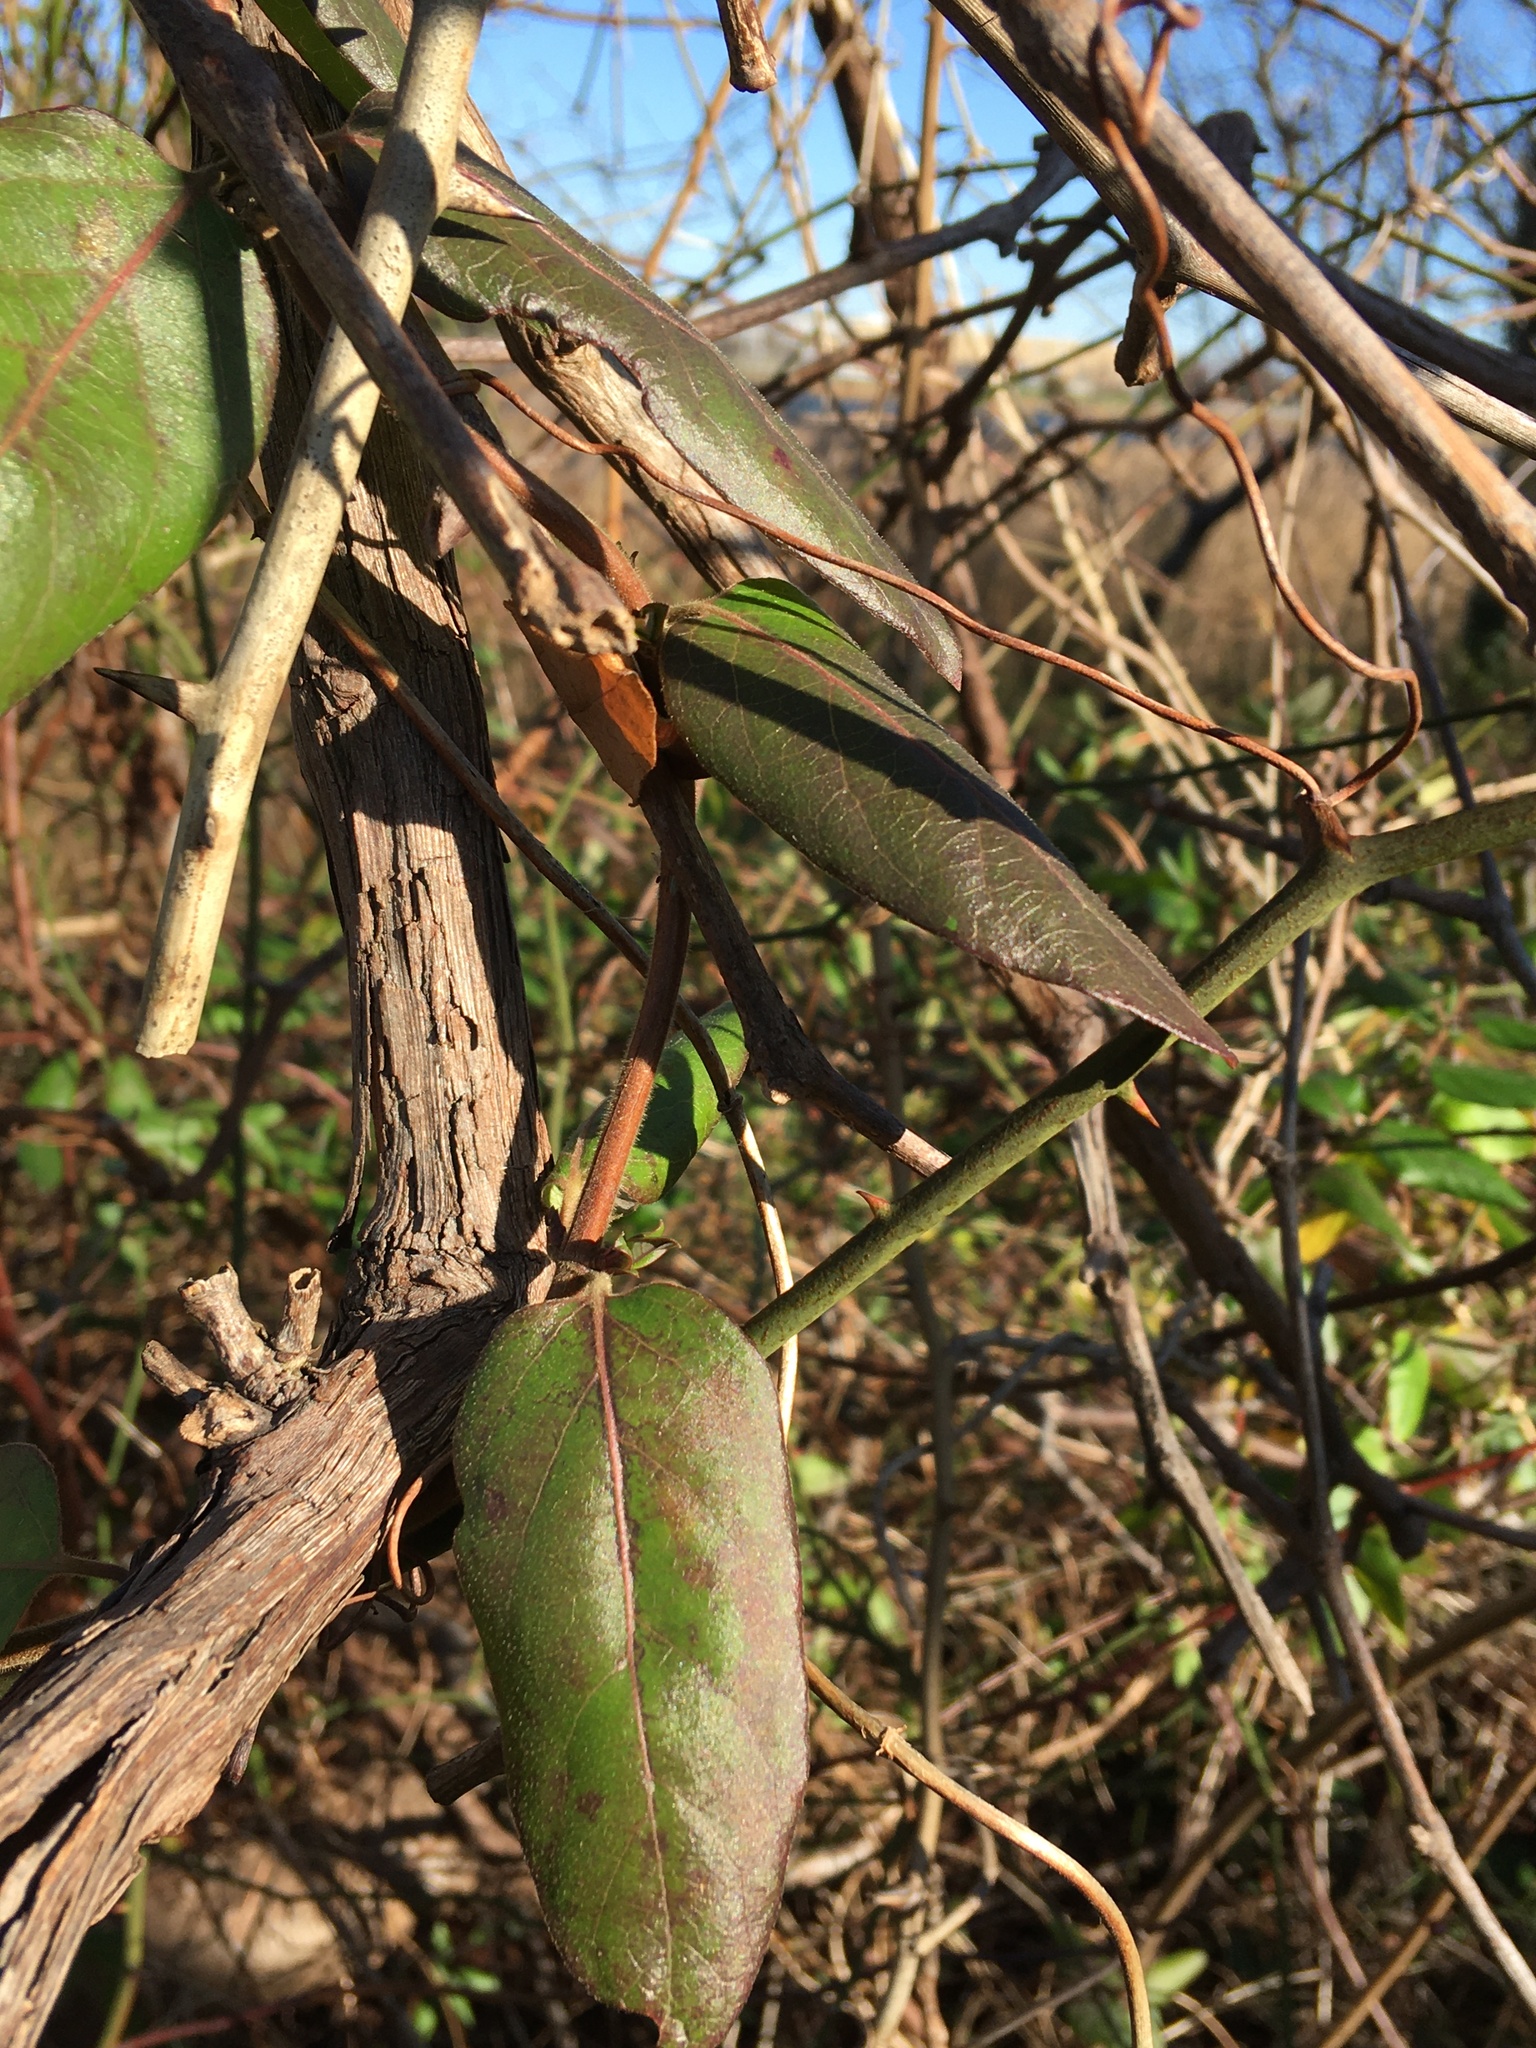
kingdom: Plantae
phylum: Tracheophyta
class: Magnoliopsida
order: Vitales
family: Vitaceae
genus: Vitis
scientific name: Vitis
